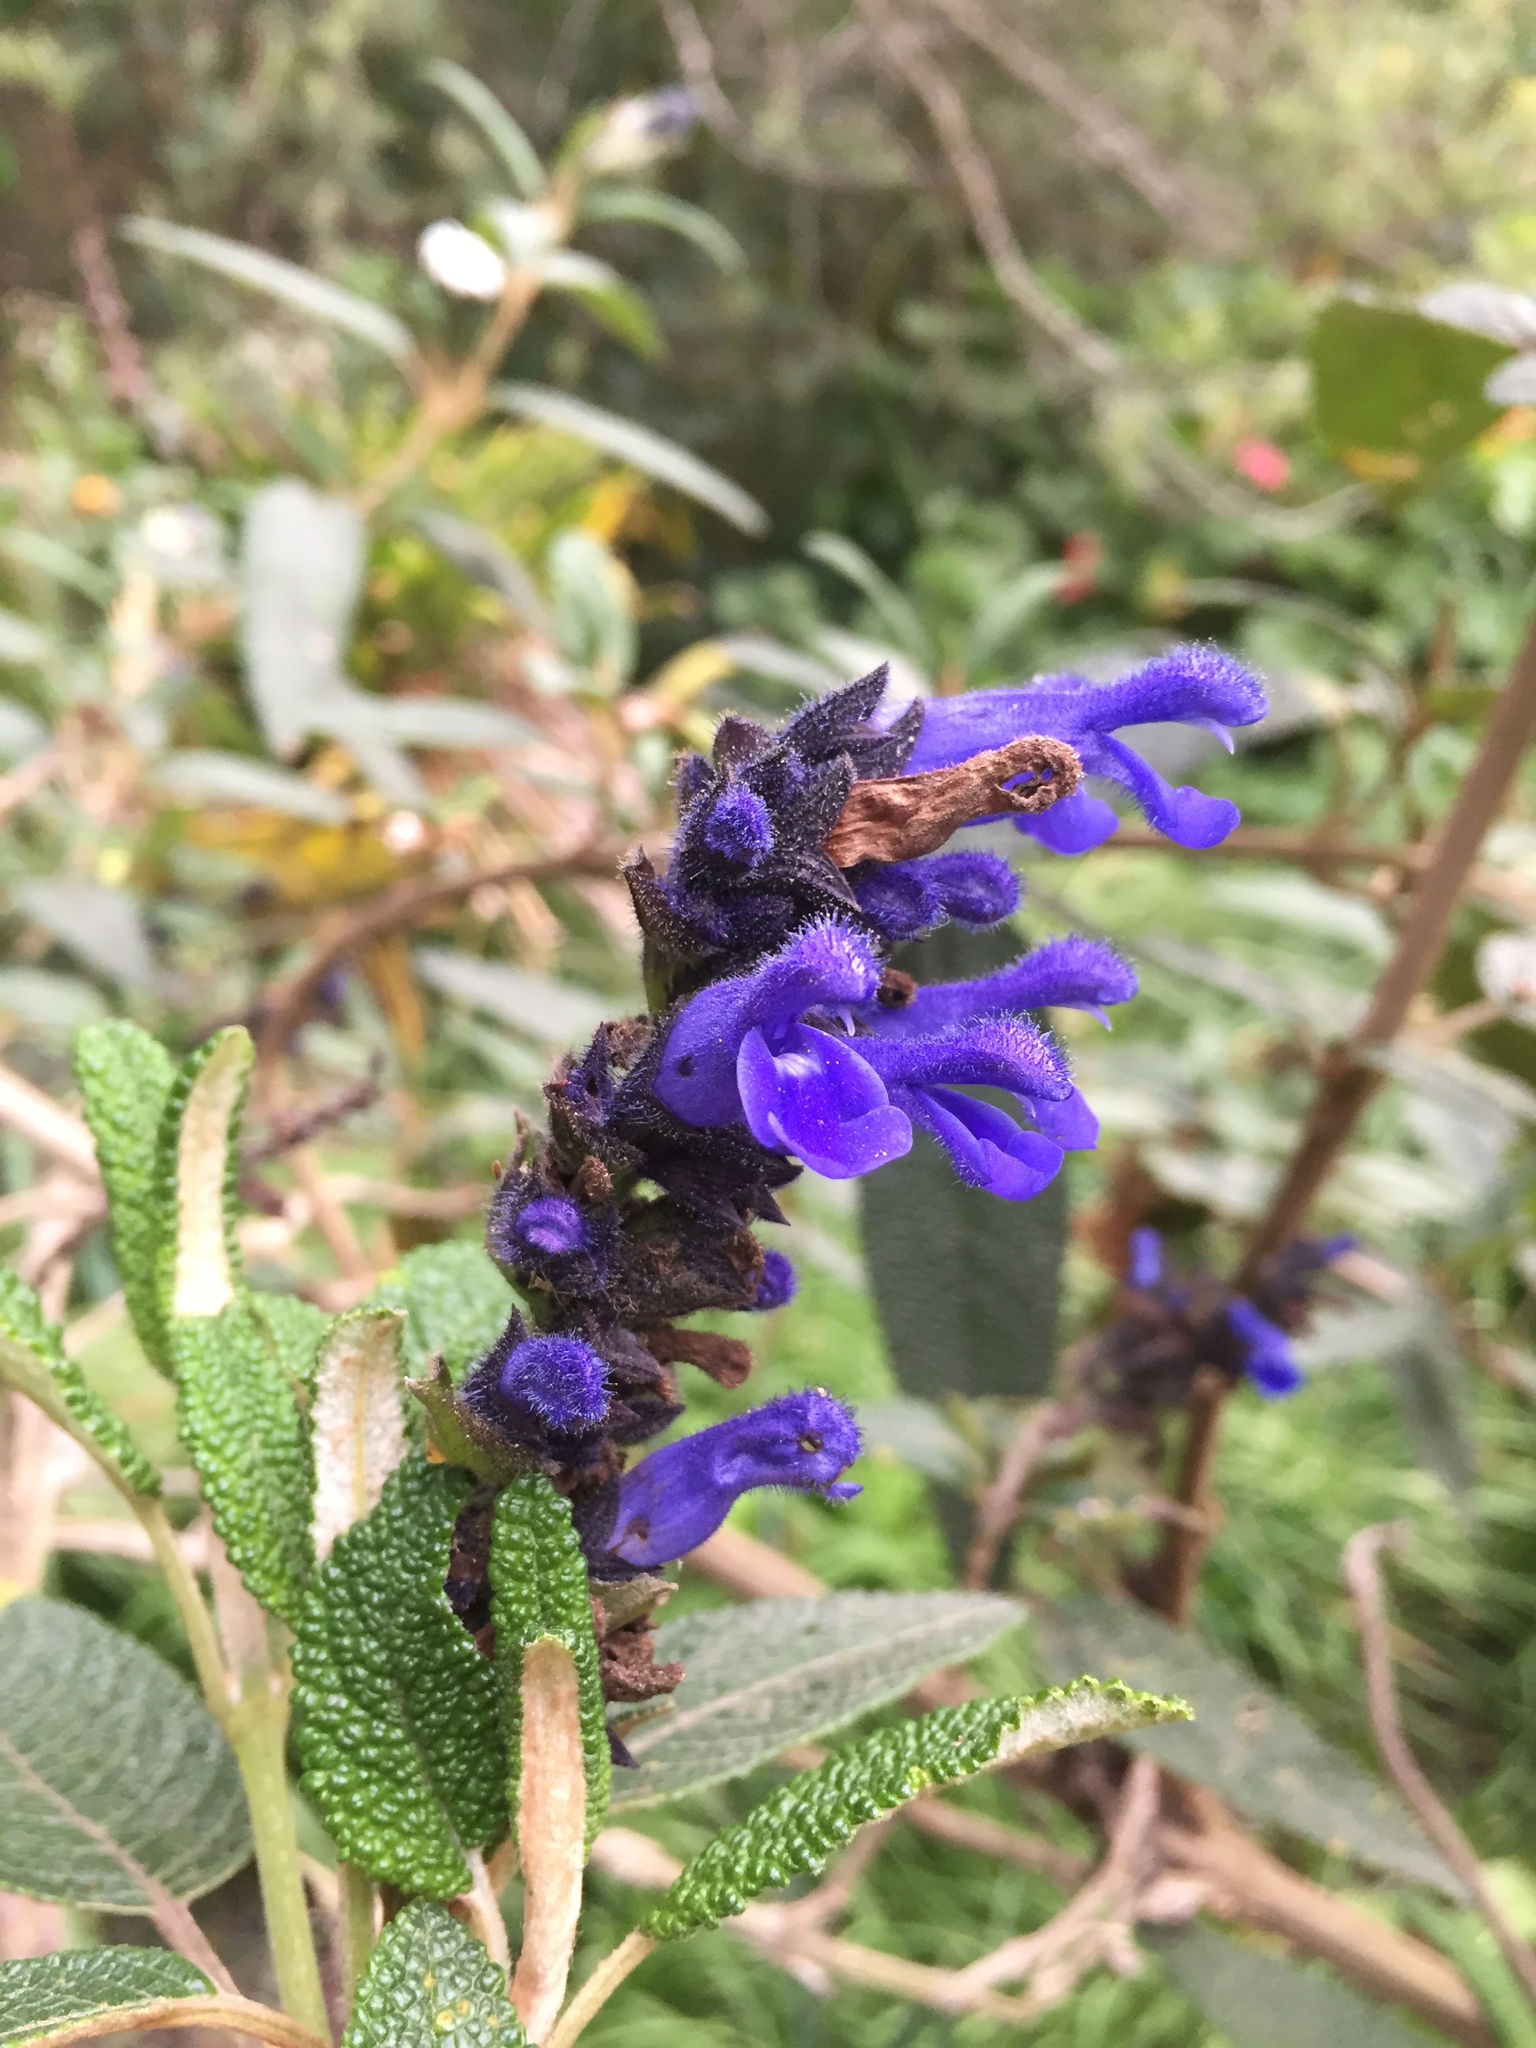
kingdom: Plantae
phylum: Tracheophyta
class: Magnoliopsida
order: Lamiales
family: Lamiaceae
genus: Salvia
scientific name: Salvia corrugata
